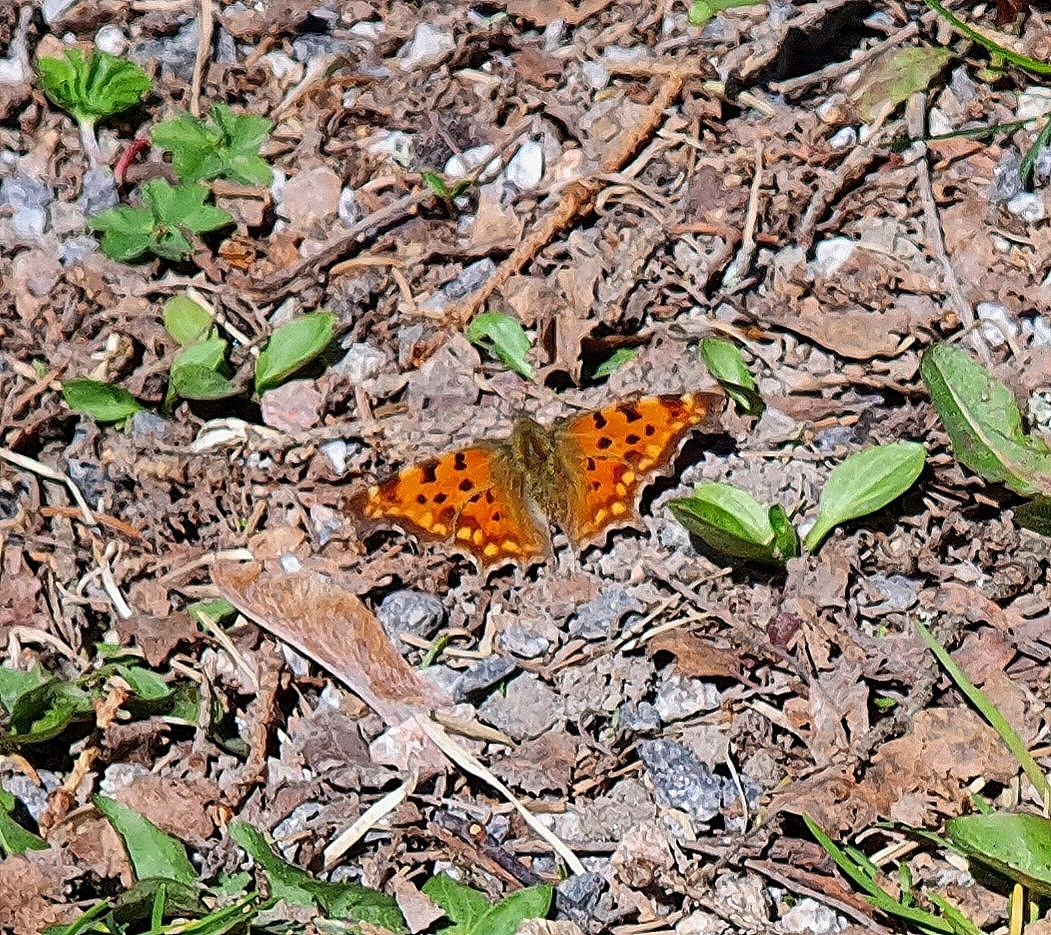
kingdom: Animalia
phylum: Arthropoda
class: Insecta
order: Lepidoptera
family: Nymphalidae
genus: Polygonia
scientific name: Polygonia c-album
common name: Comma
